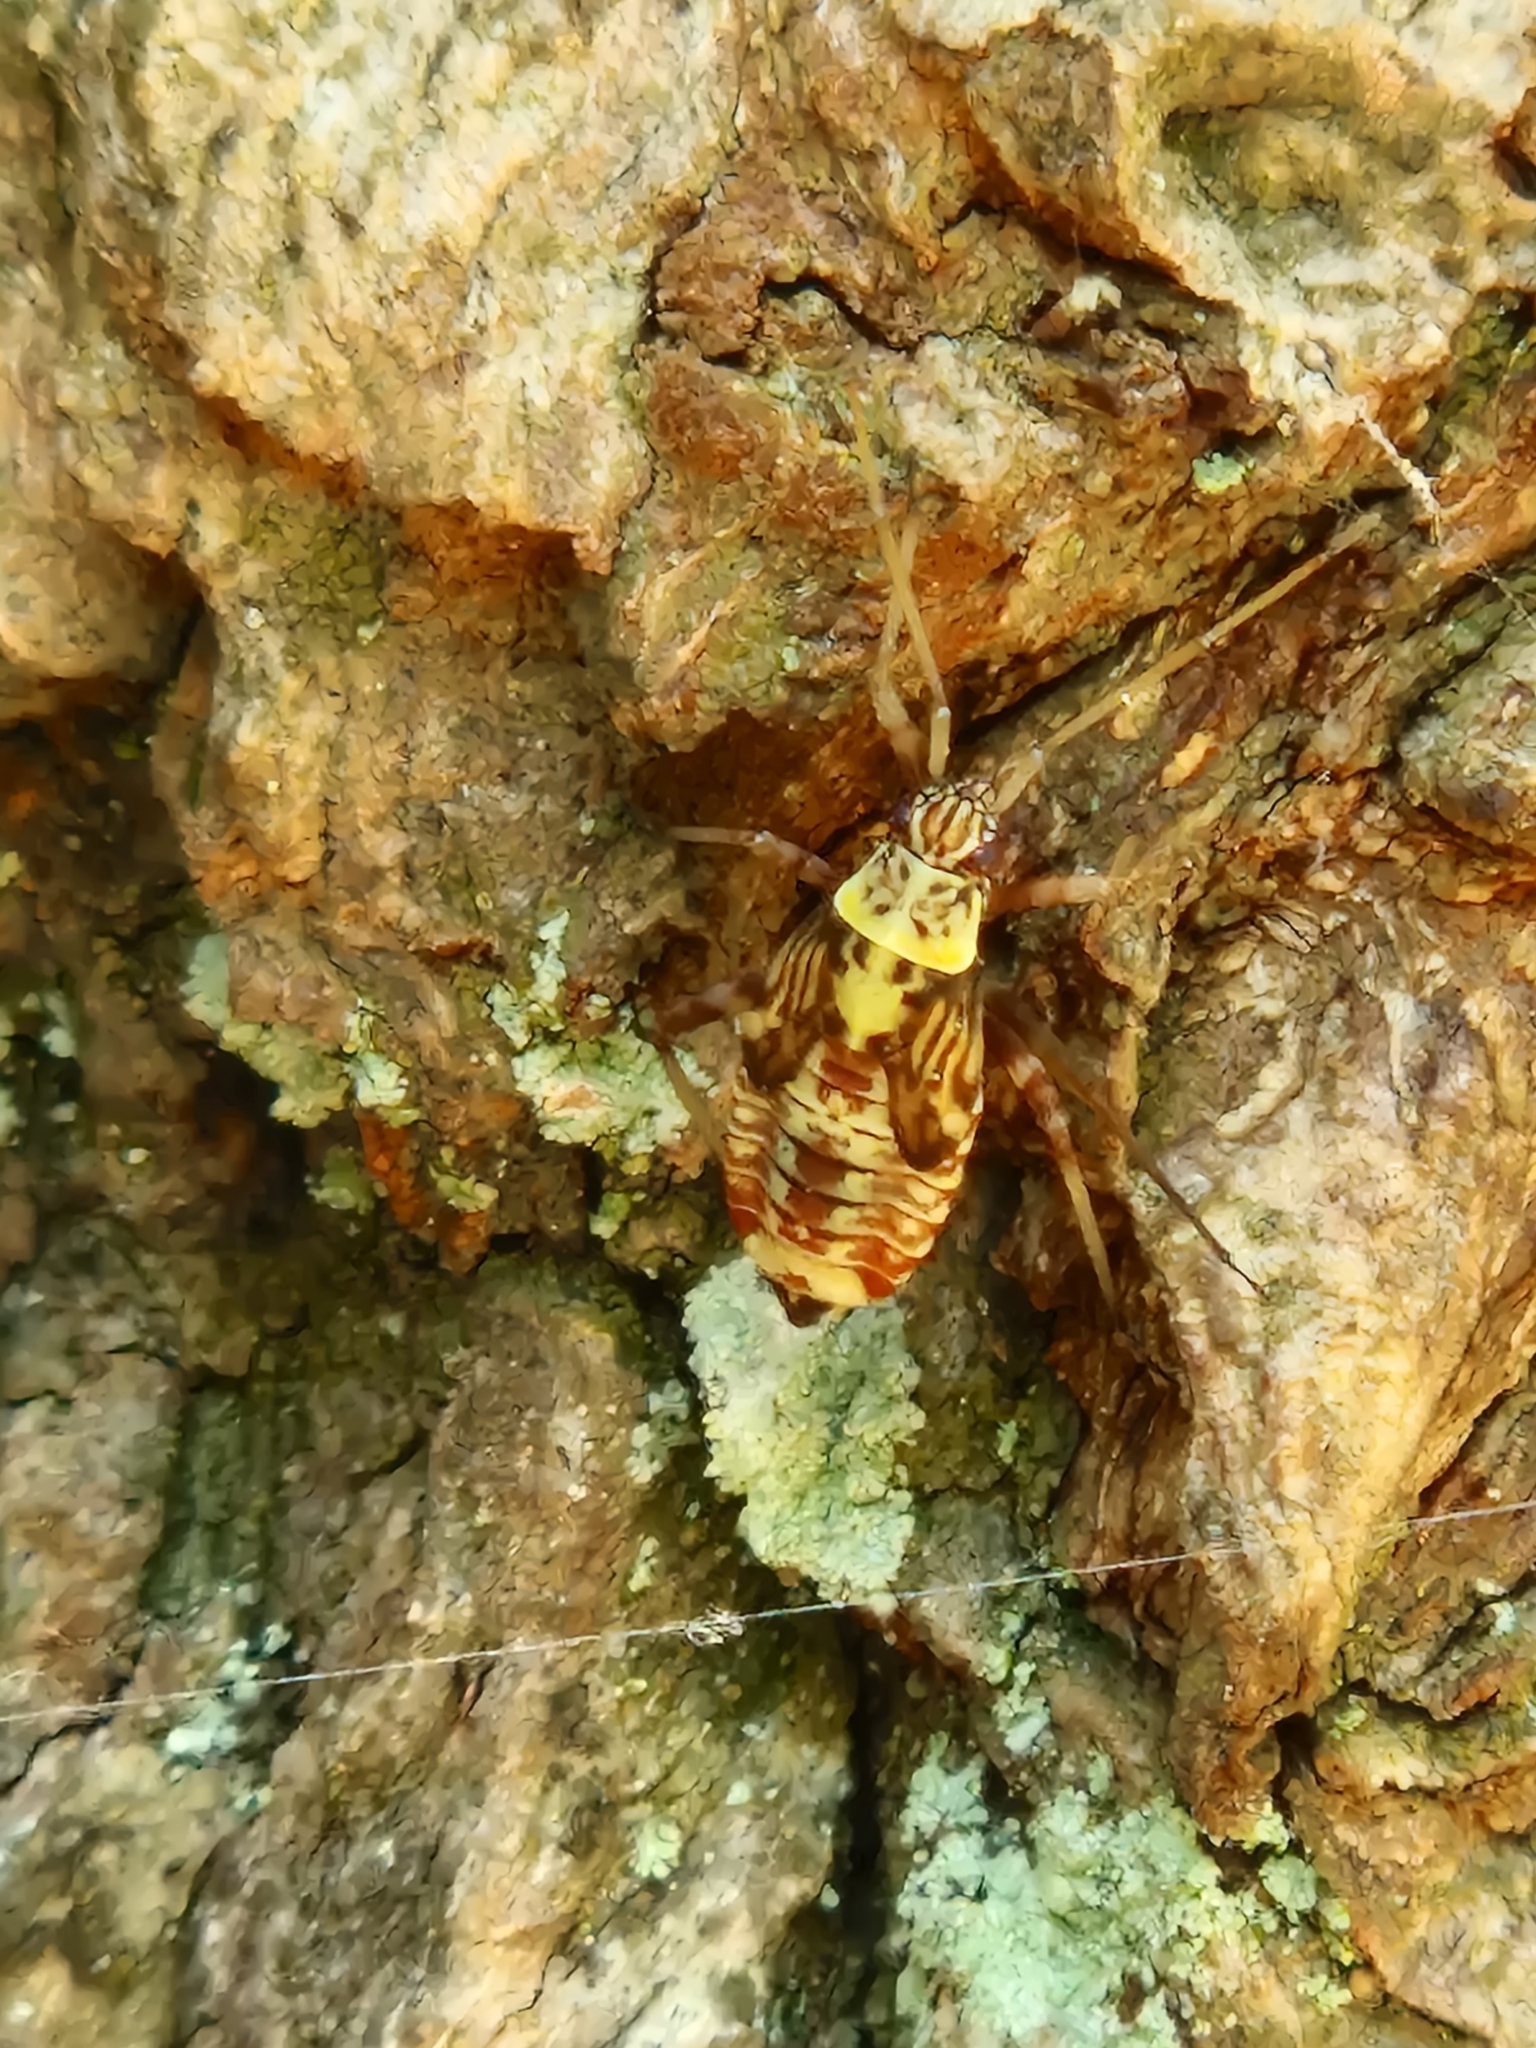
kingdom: Animalia
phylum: Arthropoda
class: Insecta
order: Hemiptera
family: Miridae
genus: Rhabdomiris
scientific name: Rhabdomiris striatellus
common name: Plant bug
